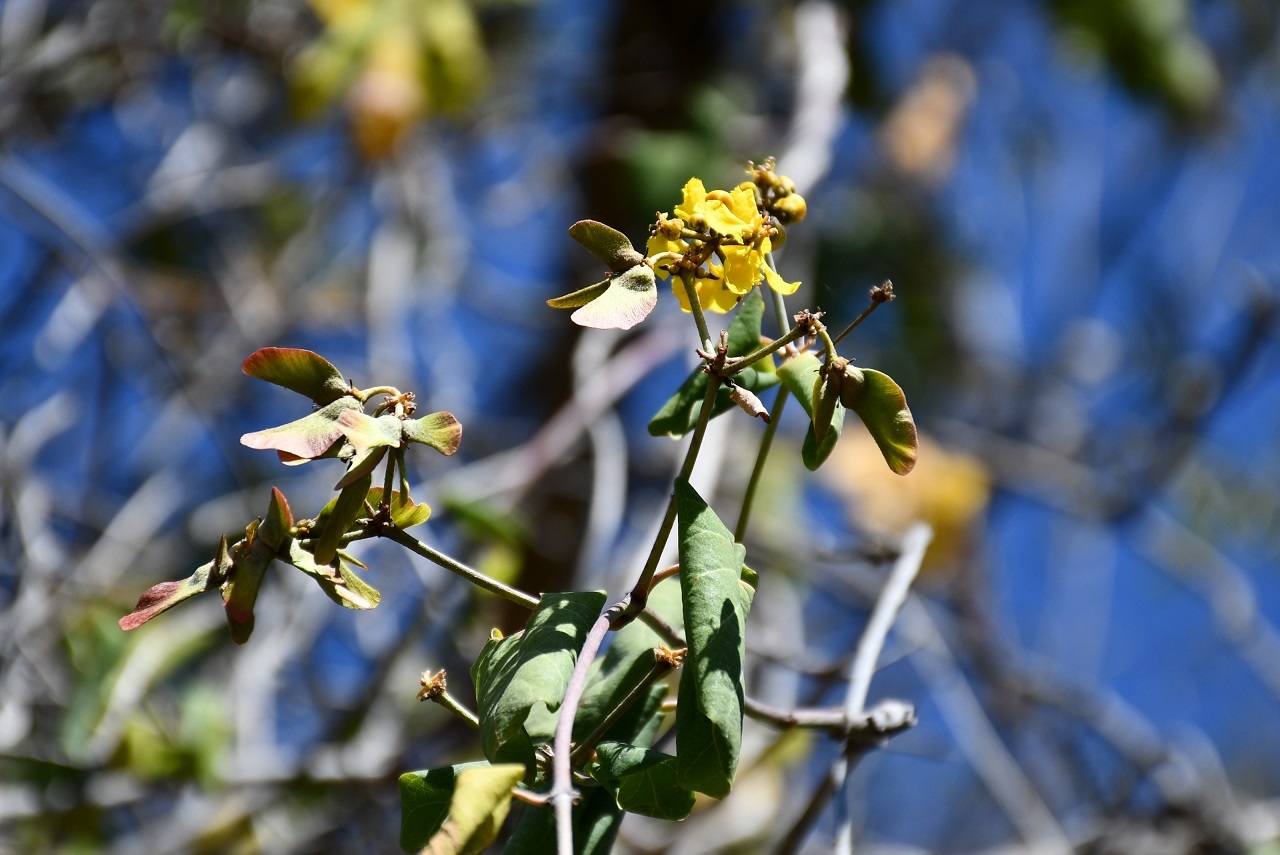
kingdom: Plantae
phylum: Tracheophyta
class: Magnoliopsida
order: Malpighiales
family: Malpighiaceae
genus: Stigmaphyllon
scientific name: Stigmaphyllon selerianum
